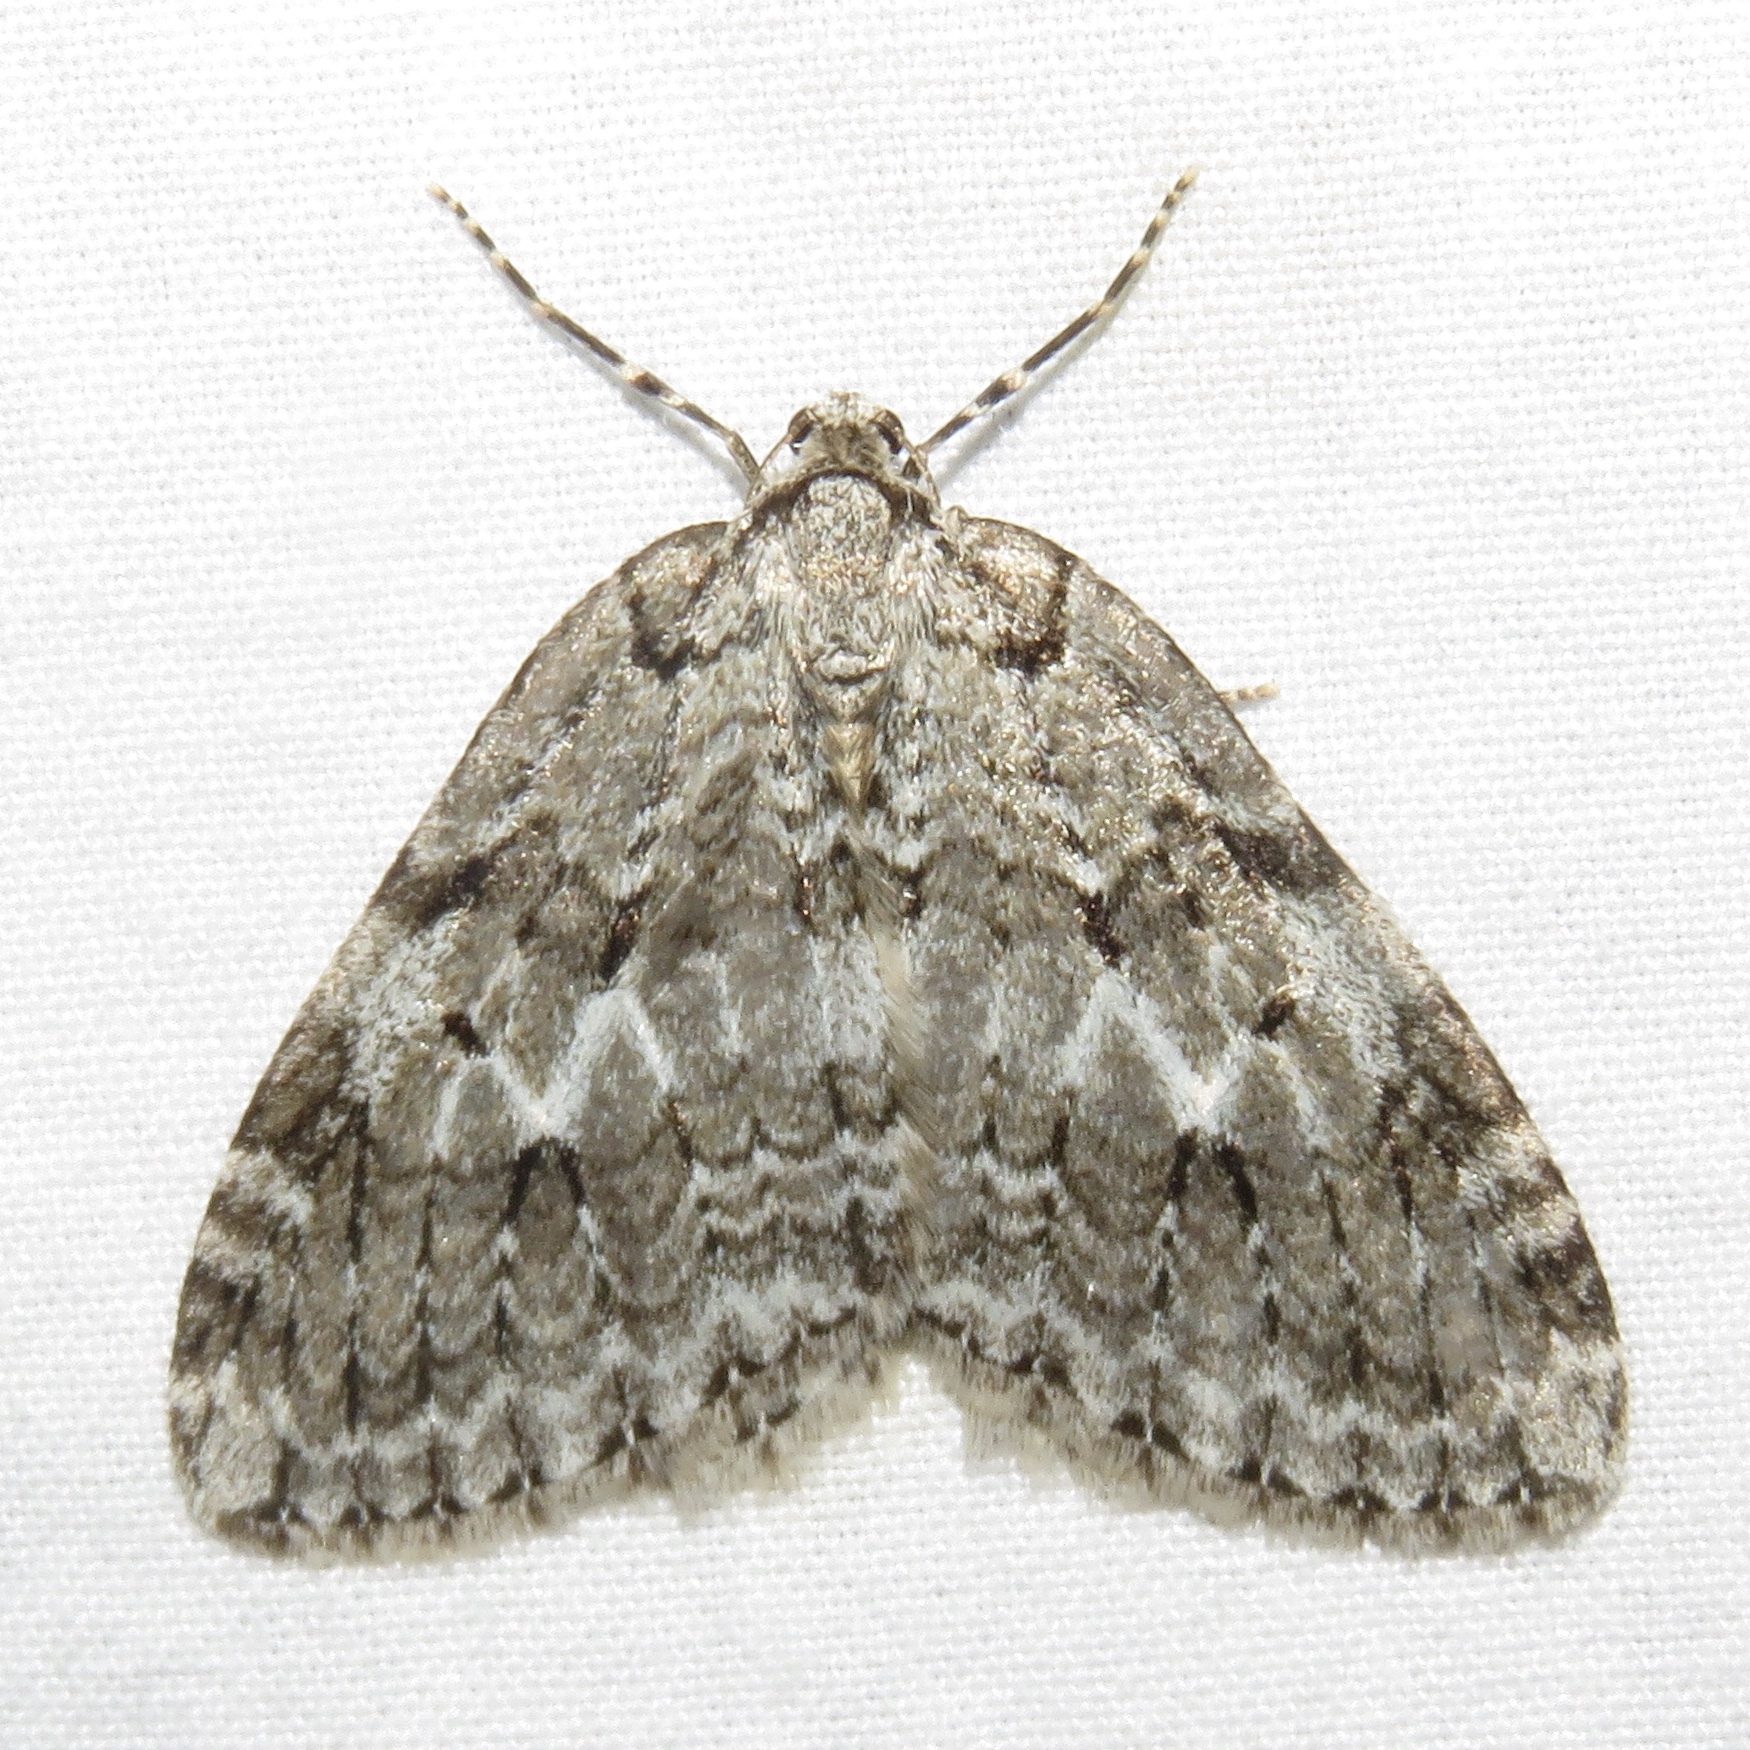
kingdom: Animalia
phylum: Arthropoda
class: Insecta
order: Lepidoptera
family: Geometridae
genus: Epirrita
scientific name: Epirrita autumnata
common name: Autumnal moth
